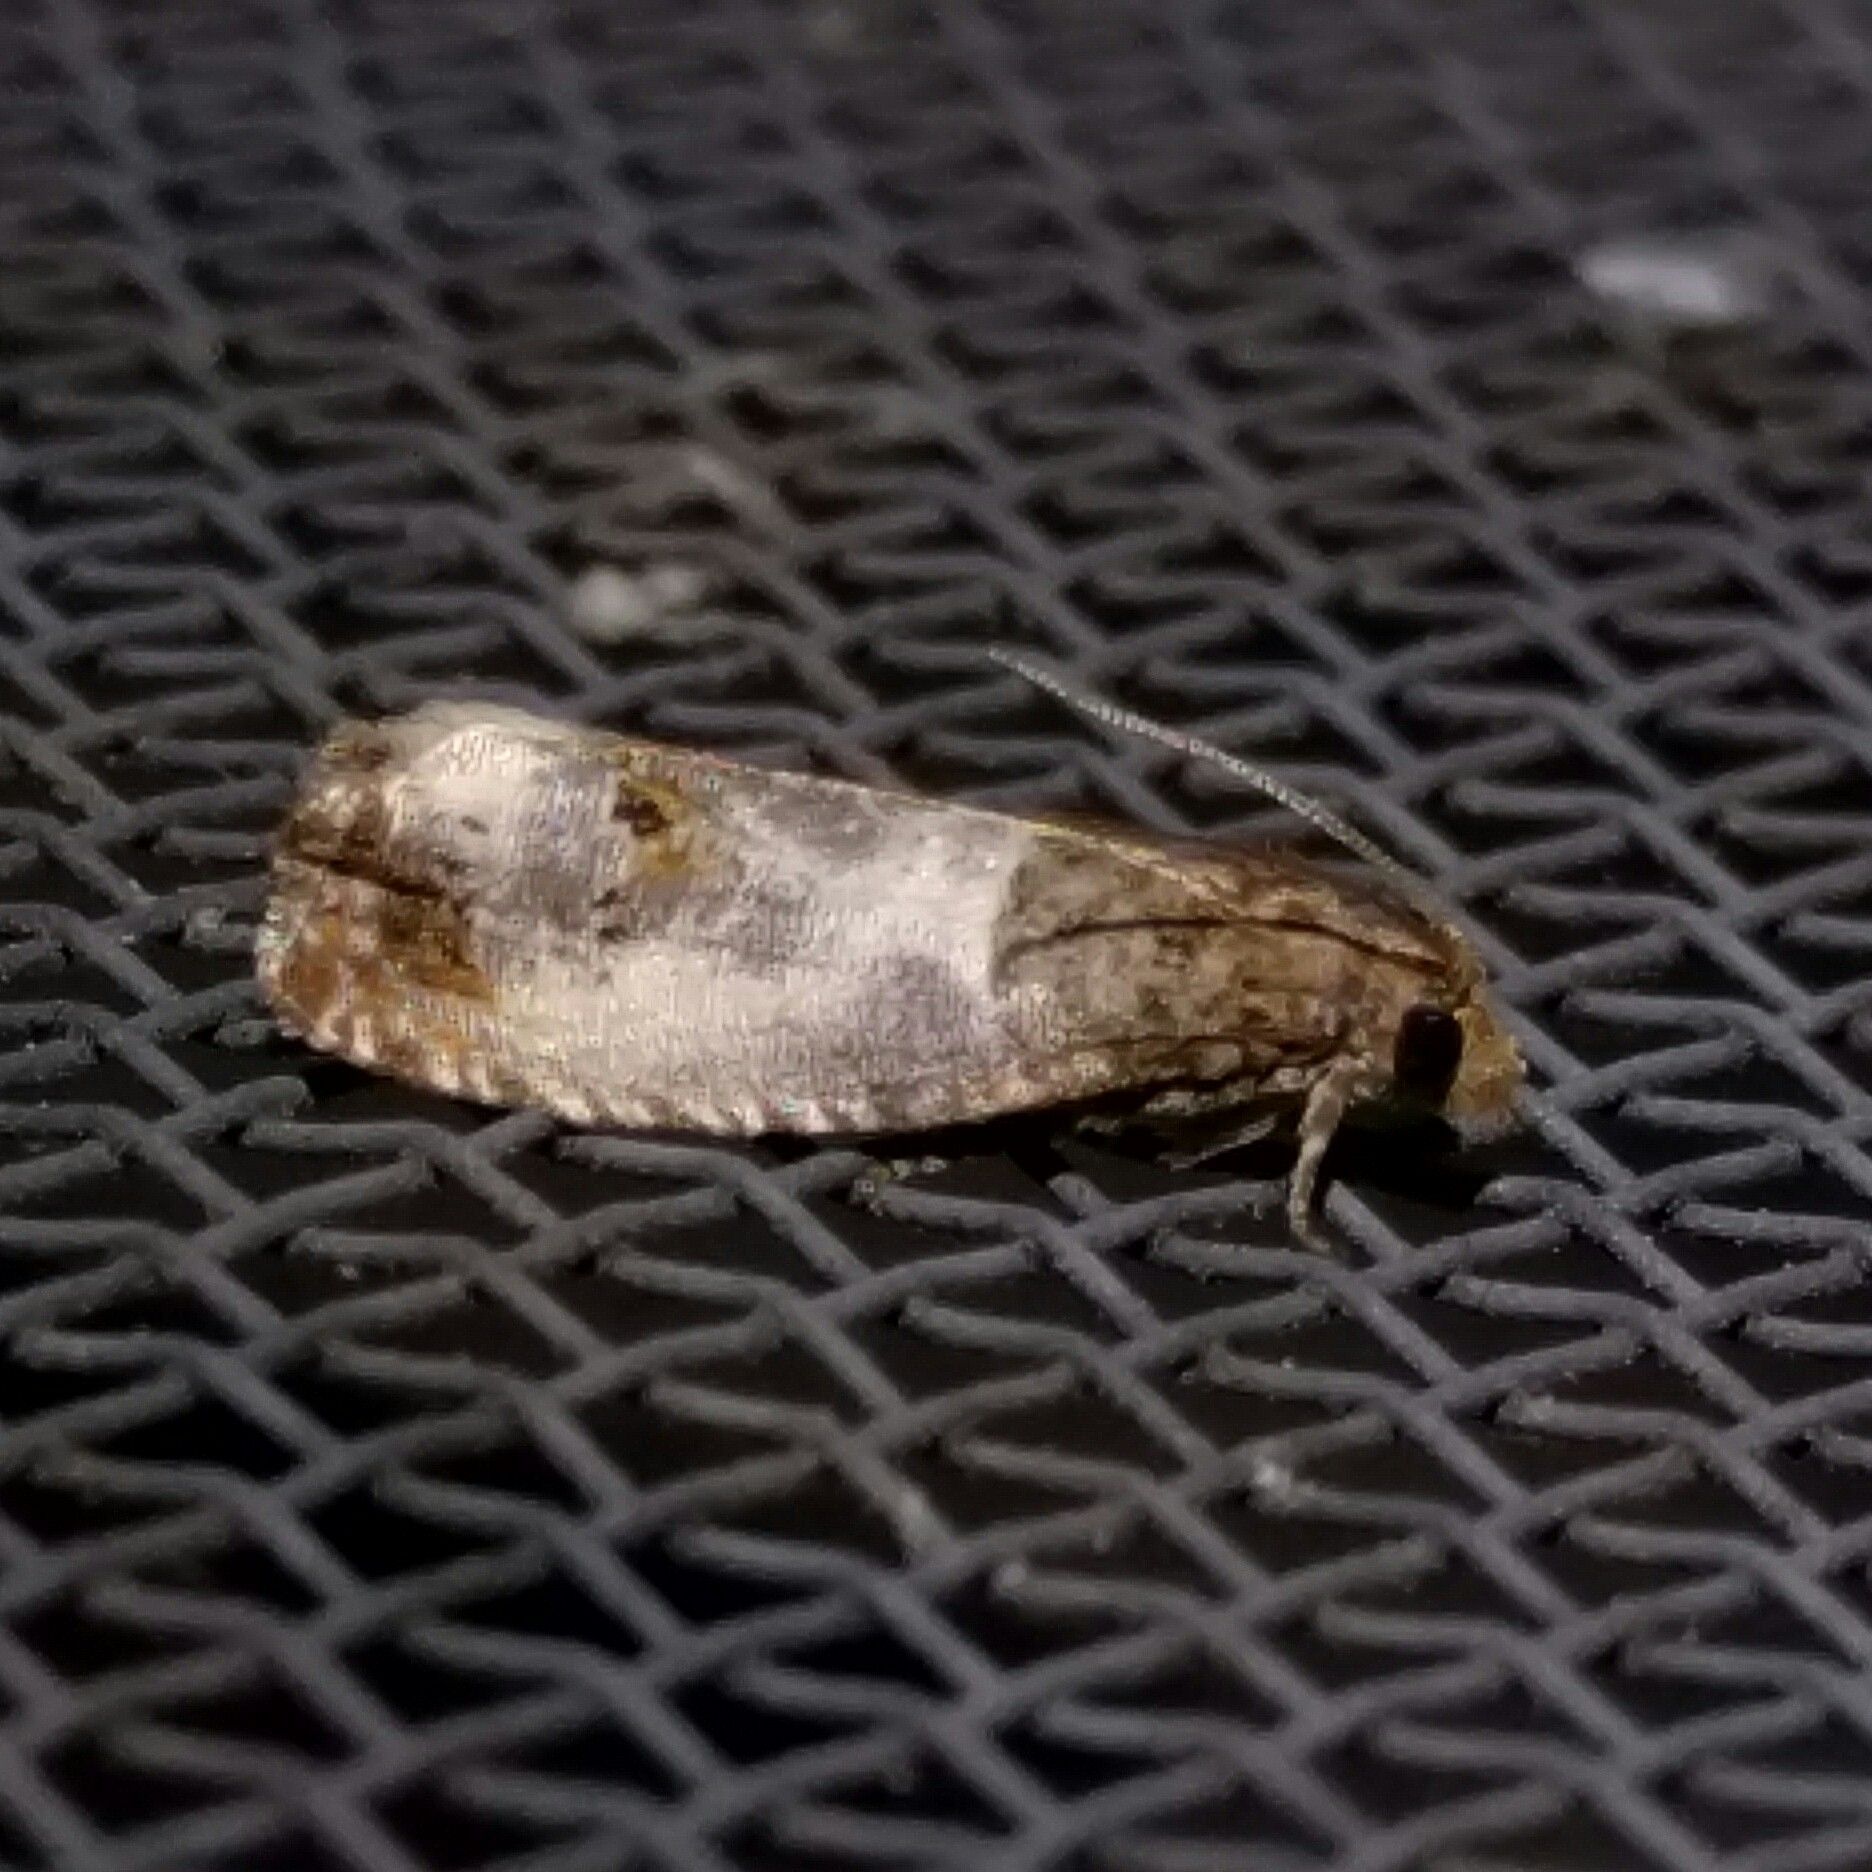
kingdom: Animalia
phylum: Arthropoda
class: Insecta
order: Lepidoptera
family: Tortricidae
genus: Notocelia
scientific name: Notocelia rosaecolana
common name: Common rose bell
